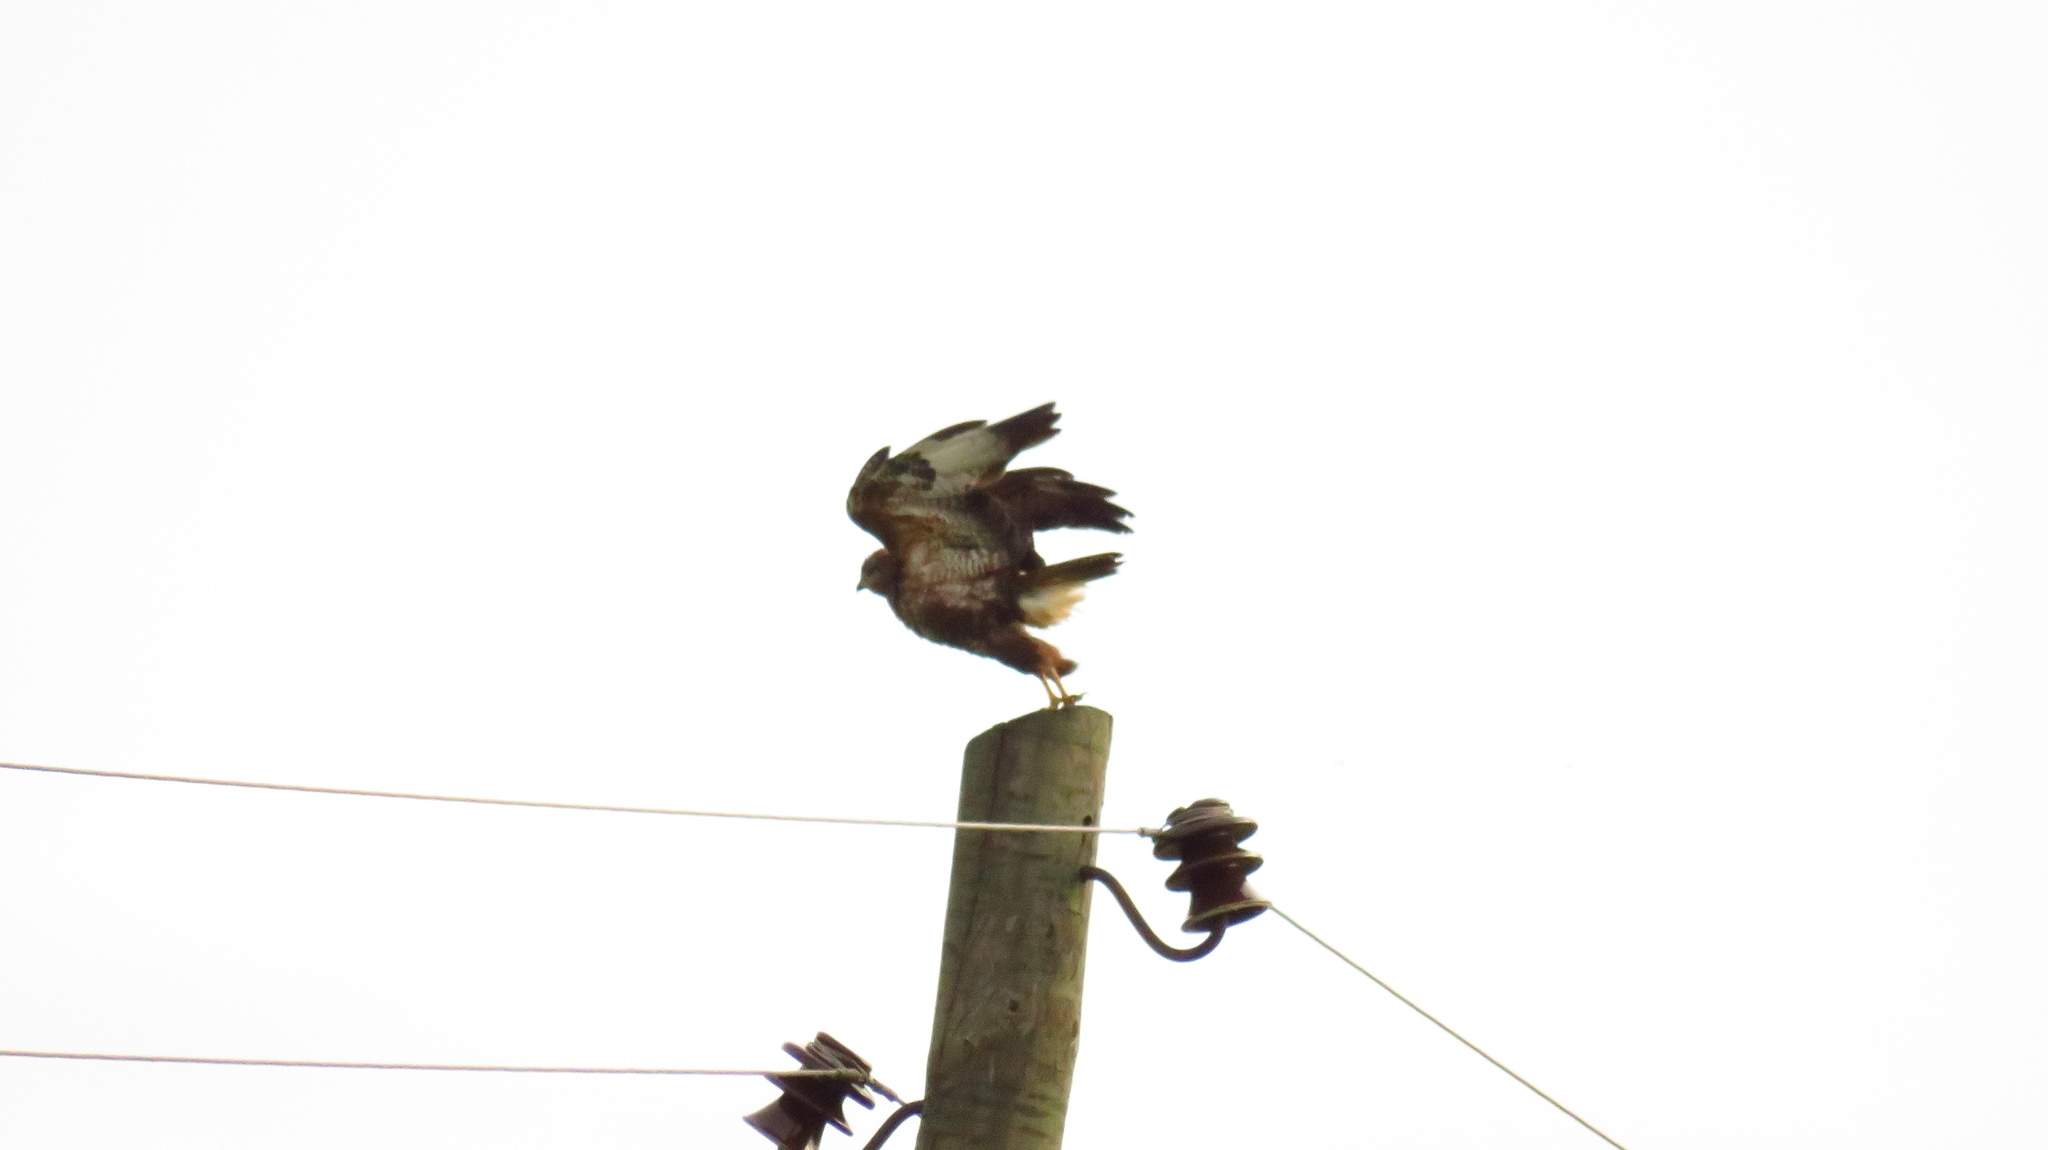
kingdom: Animalia
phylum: Chordata
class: Aves
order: Accipitriformes
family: Accipitridae
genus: Buteo
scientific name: Buteo buteo
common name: Common buzzard
